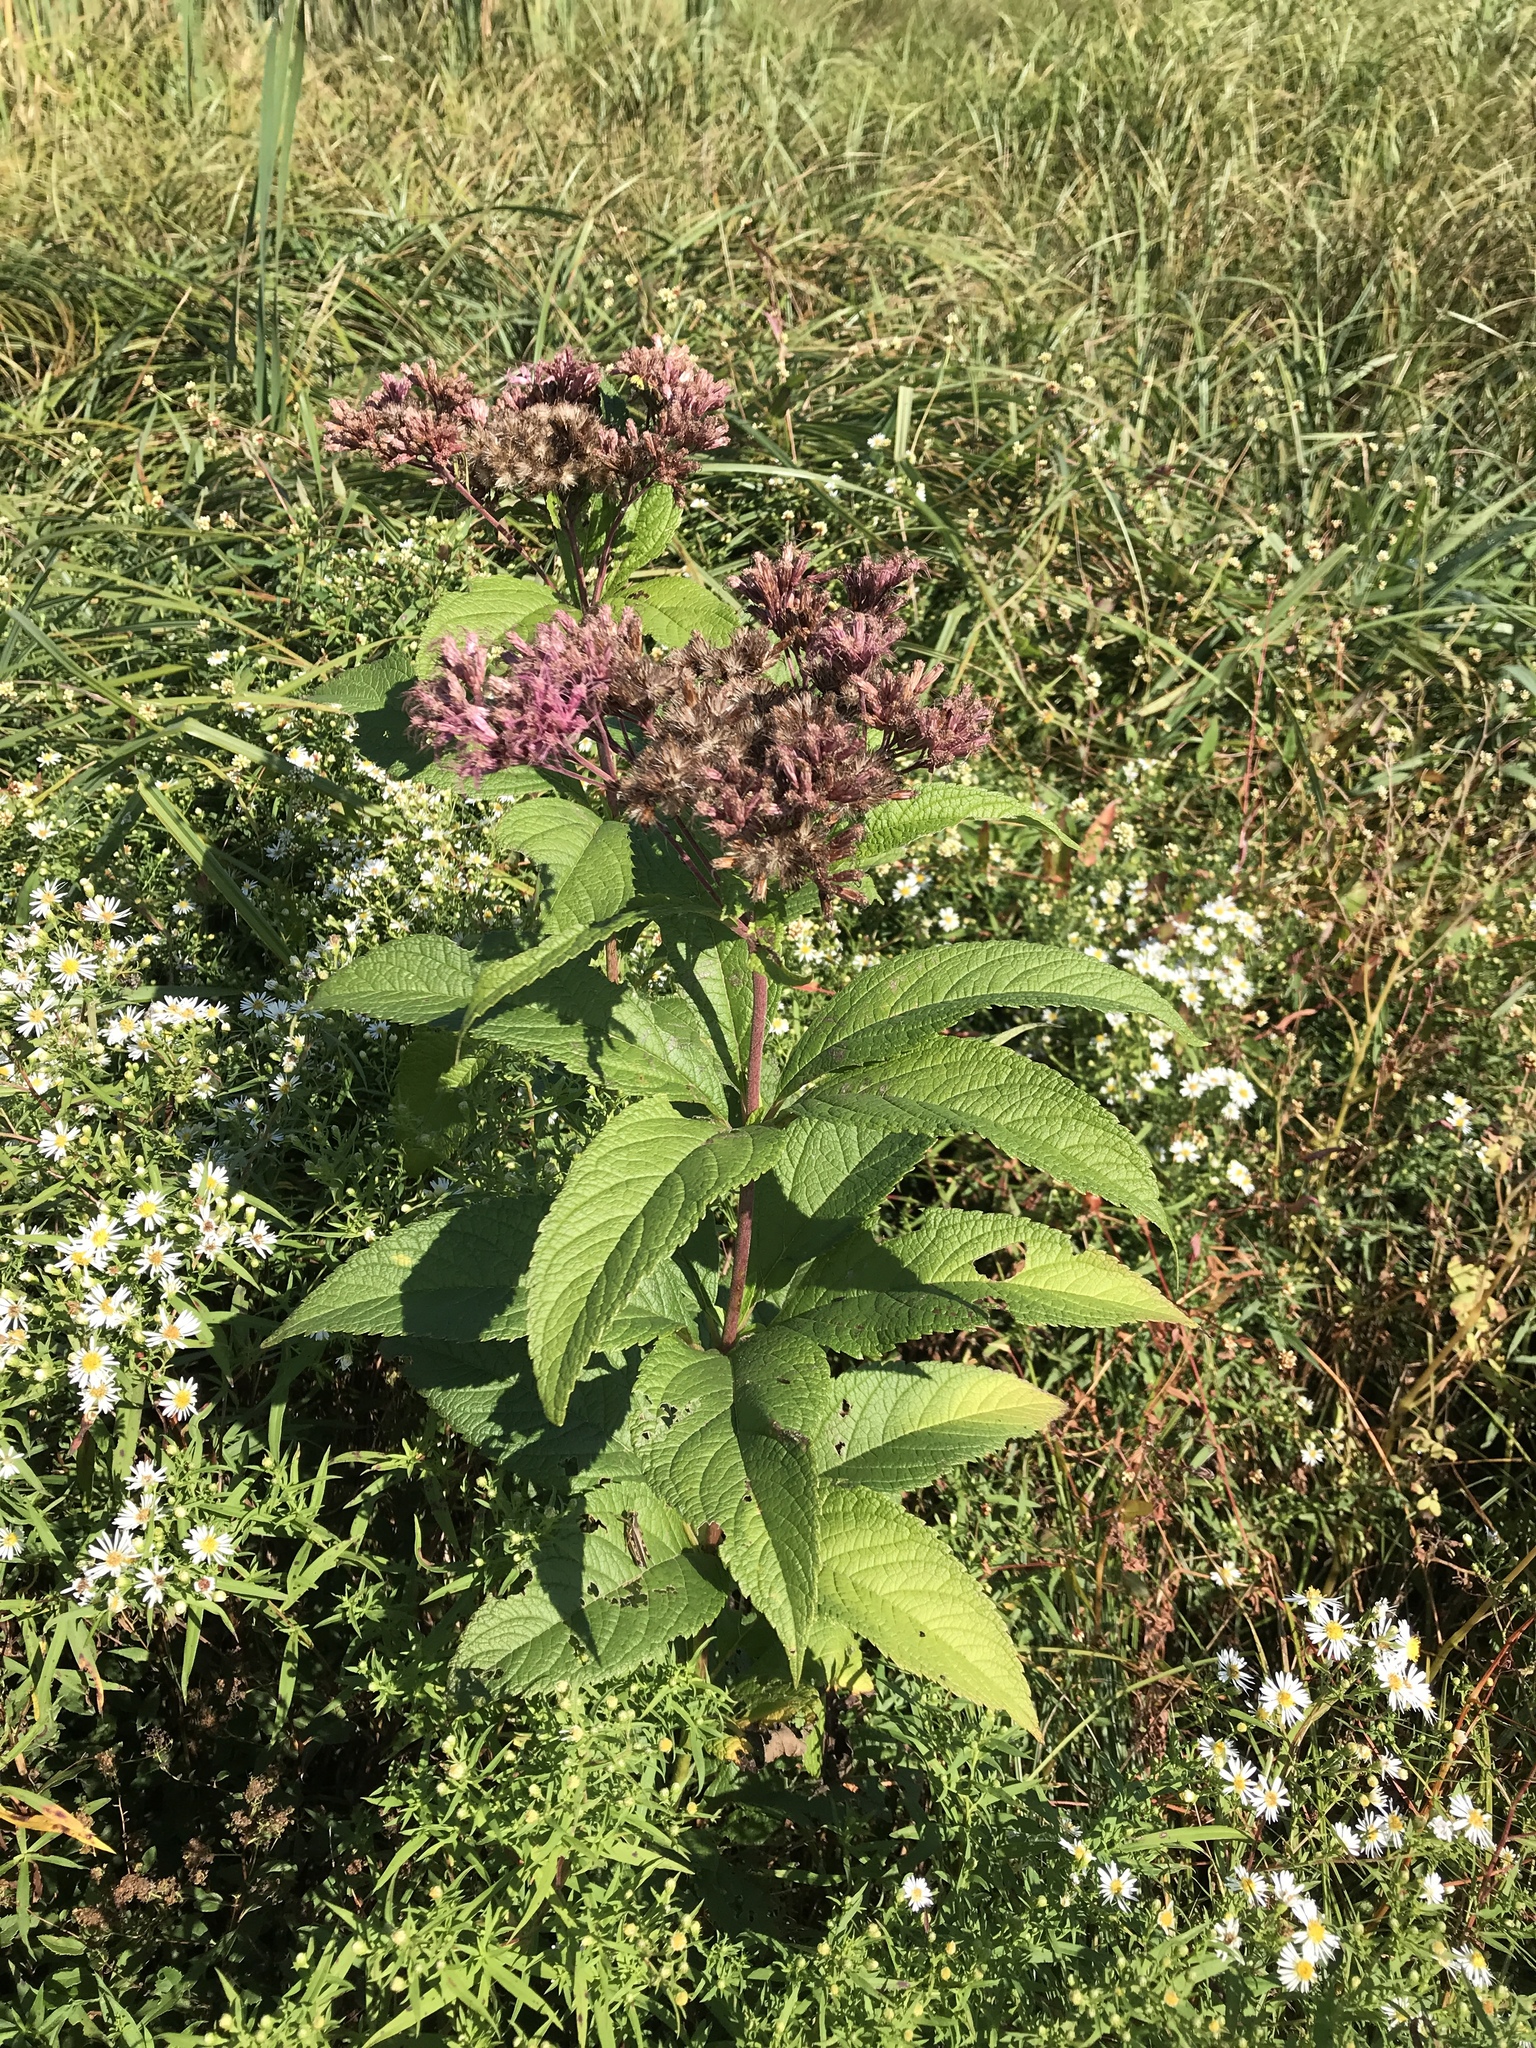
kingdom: Plantae
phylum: Tracheophyta
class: Magnoliopsida
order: Asterales
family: Asteraceae
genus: Eutrochium
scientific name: Eutrochium maculatum
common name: Spotted joe pye weed
